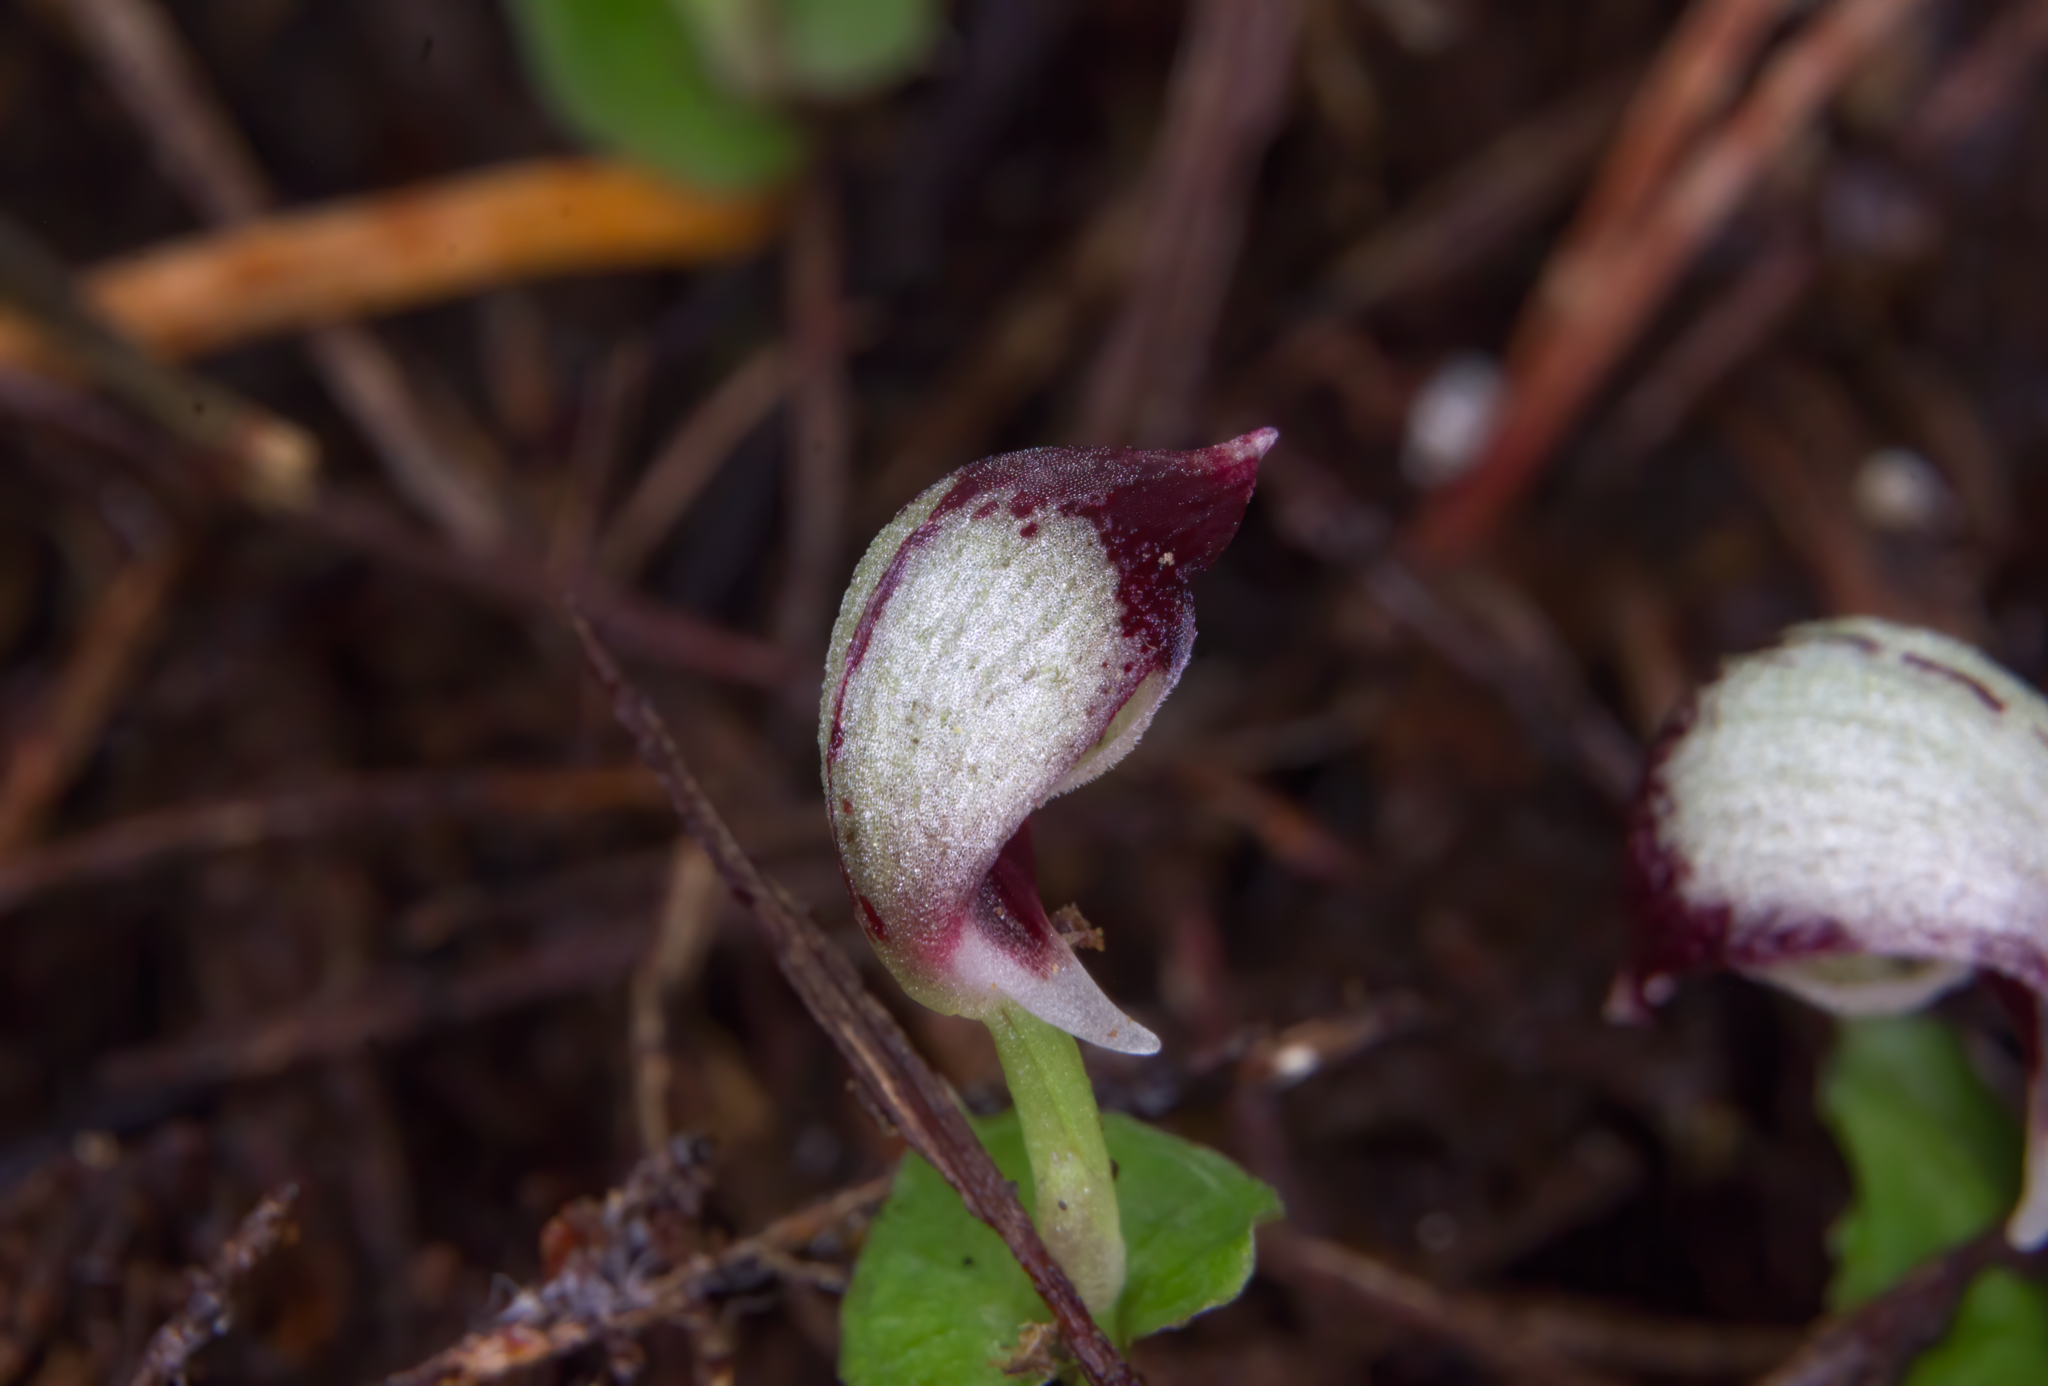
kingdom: Plantae
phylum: Tracheophyta
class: Liliopsida
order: Asparagales
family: Orchidaceae
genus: Corybas
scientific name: Corybas cheesemanii
